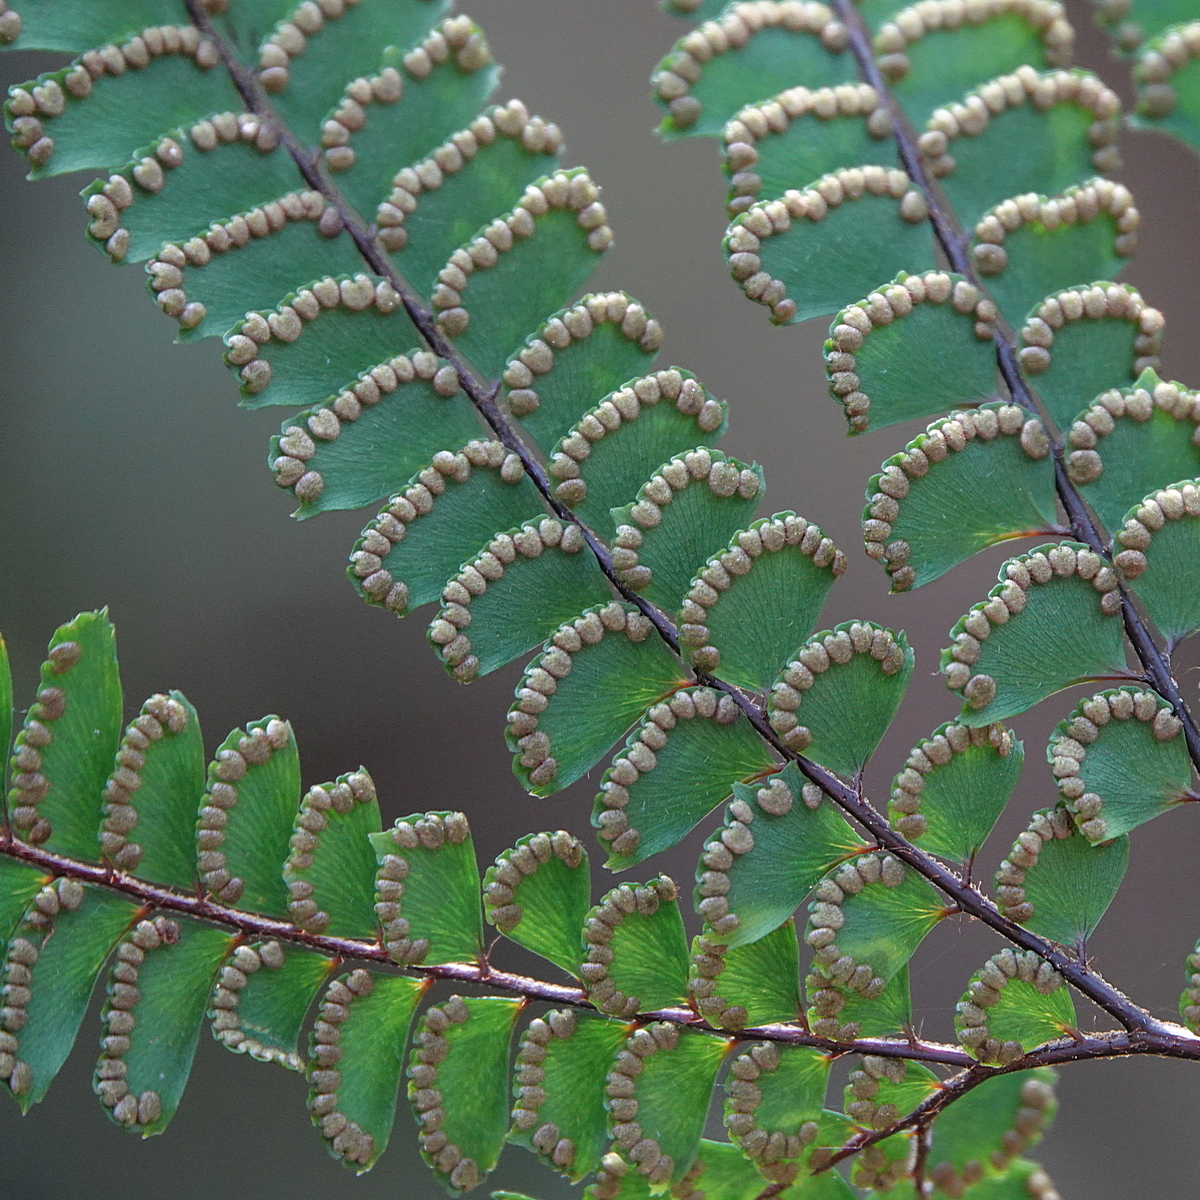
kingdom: Plantae
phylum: Tracheophyta
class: Polypodiopsida
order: Polypodiales
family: Pteridaceae
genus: Adiantum
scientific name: Adiantum hispidulum
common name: Rough maidenhair
